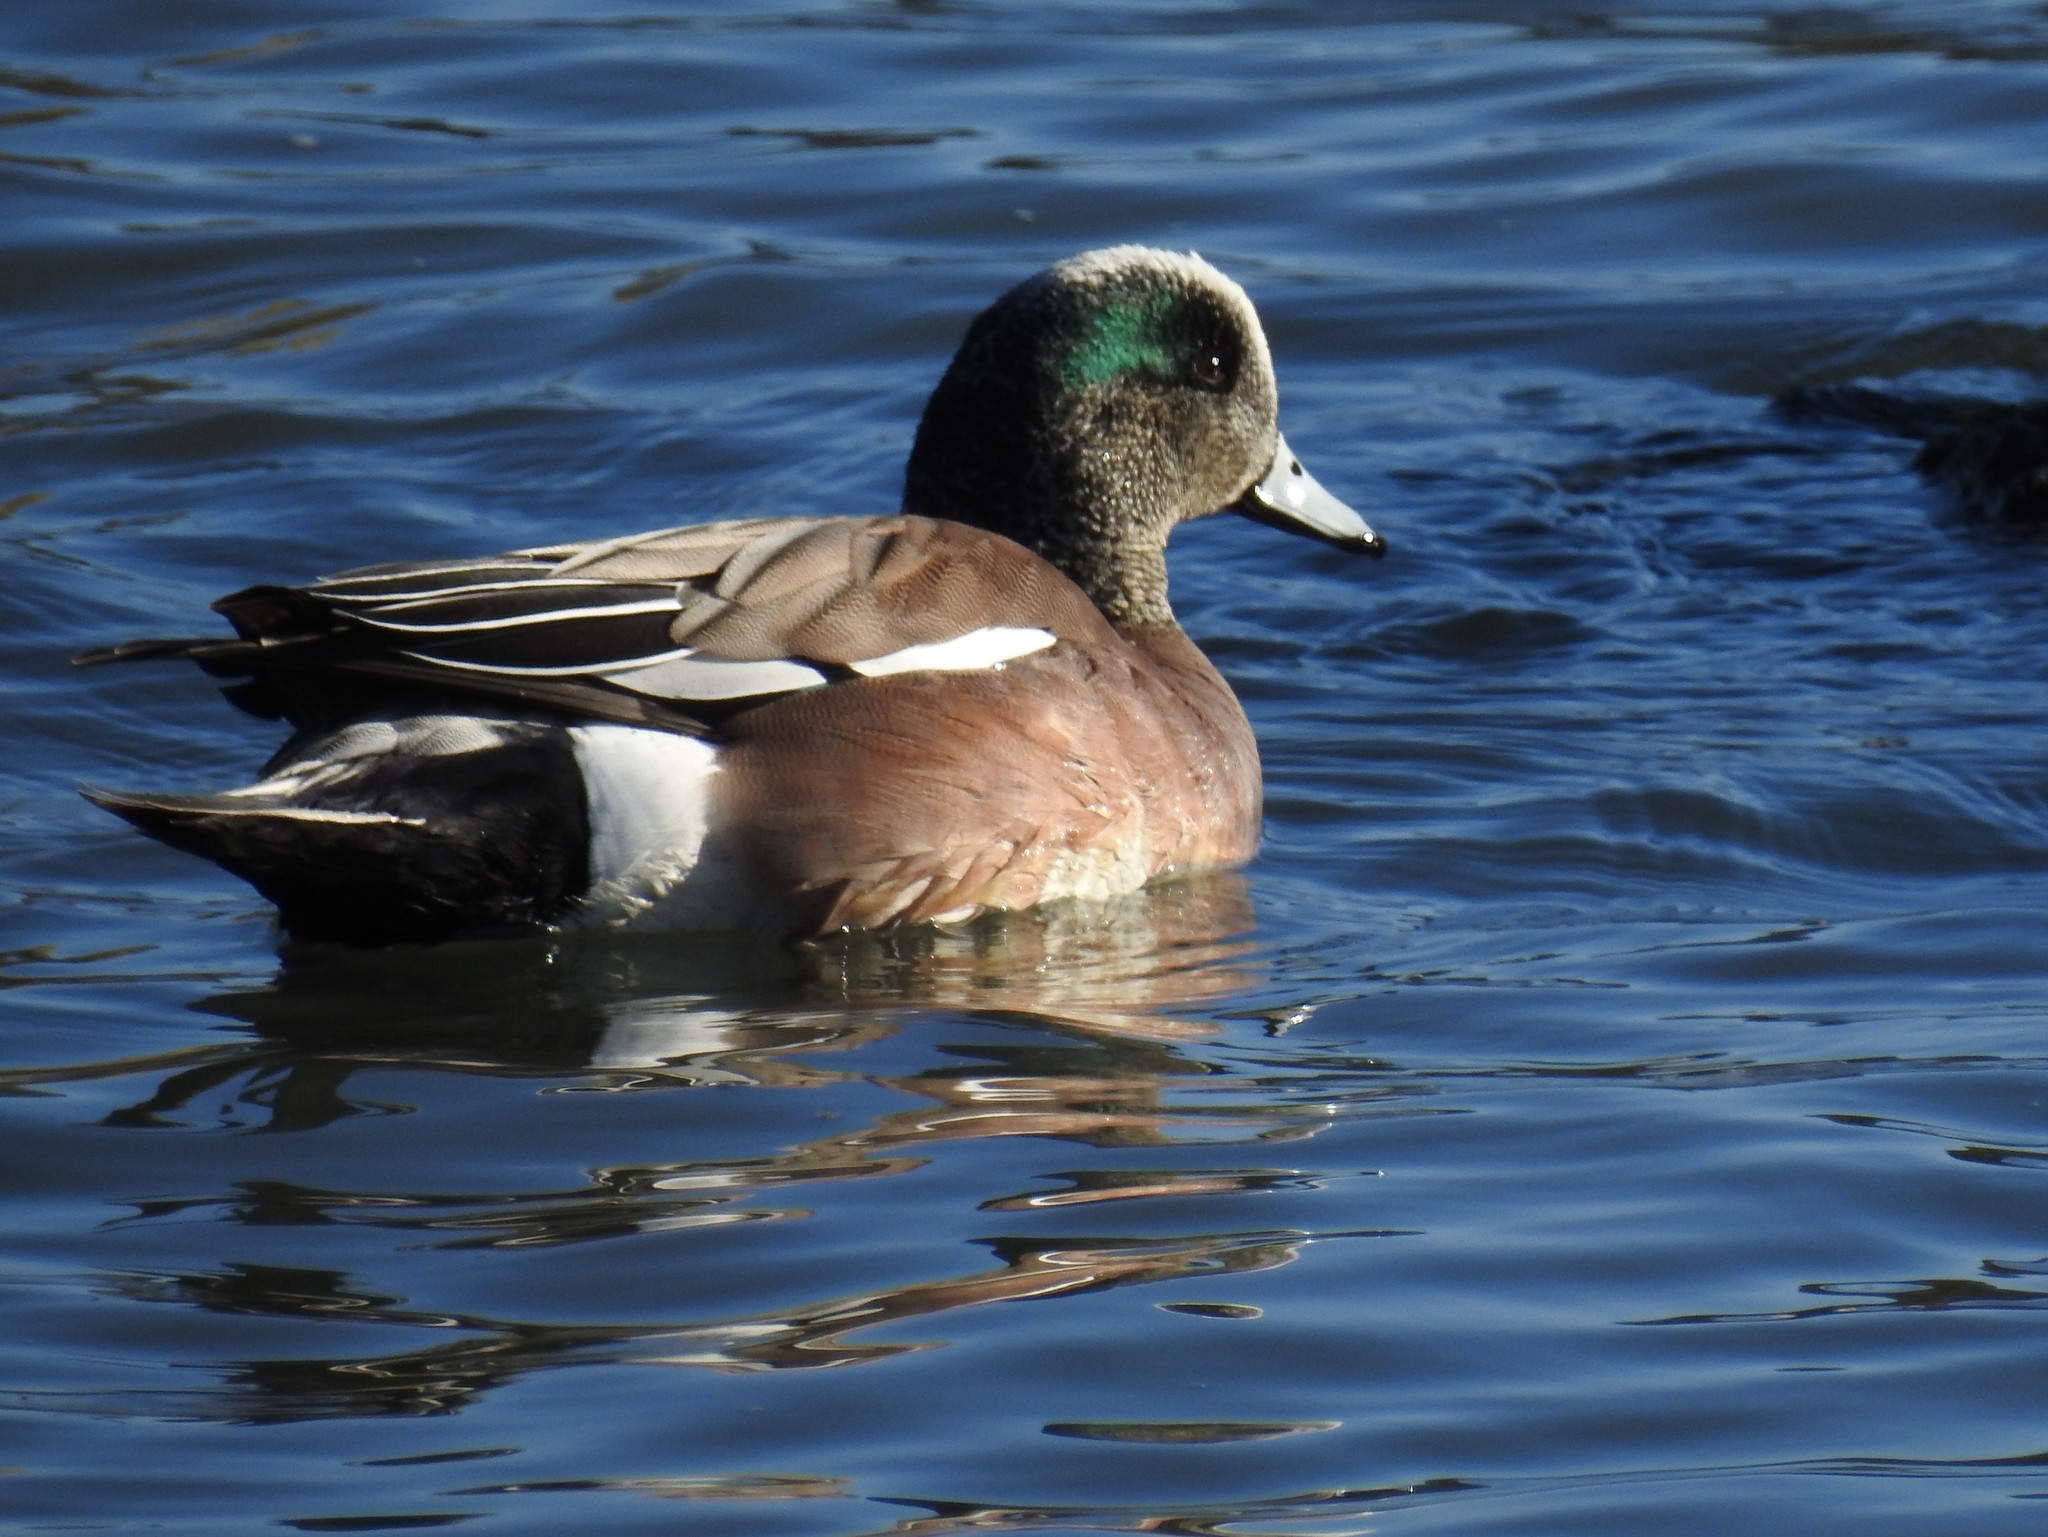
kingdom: Animalia
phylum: Chordata
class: Aves
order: Anseriformes
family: Anatidae
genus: Mareca
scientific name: Mareca americana
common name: American wigeon
